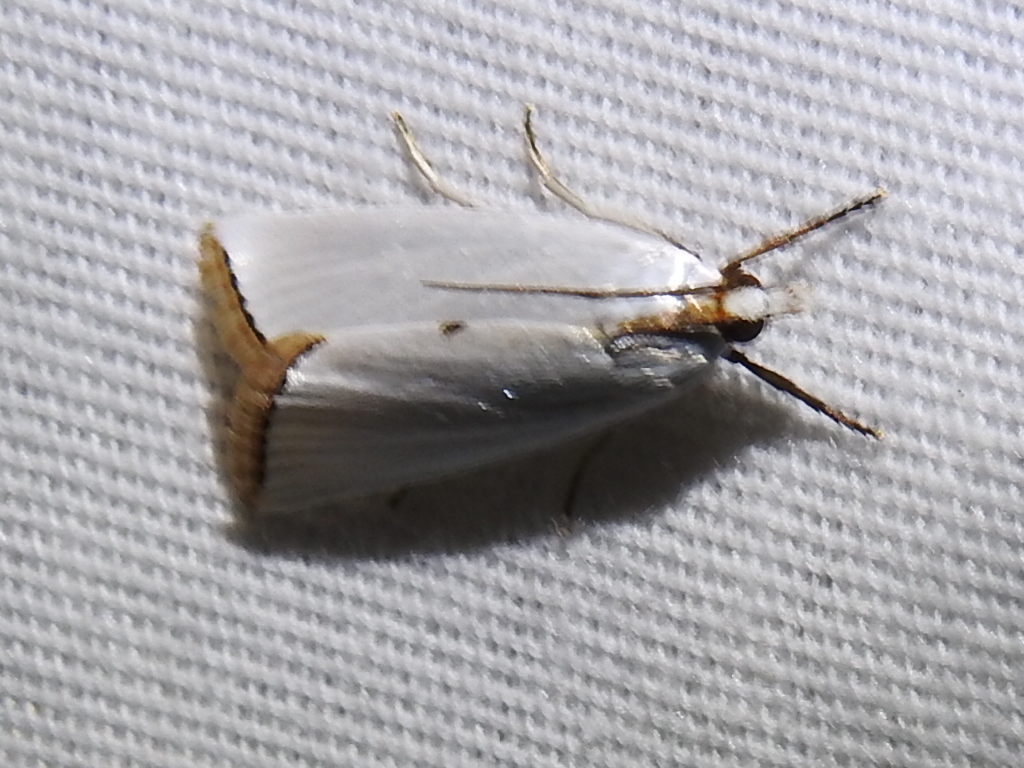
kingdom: Animalia
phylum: Arthropoda
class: Insecta
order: Lepidoptera
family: Crambidae
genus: Argyria
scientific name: Argyria nivalis
